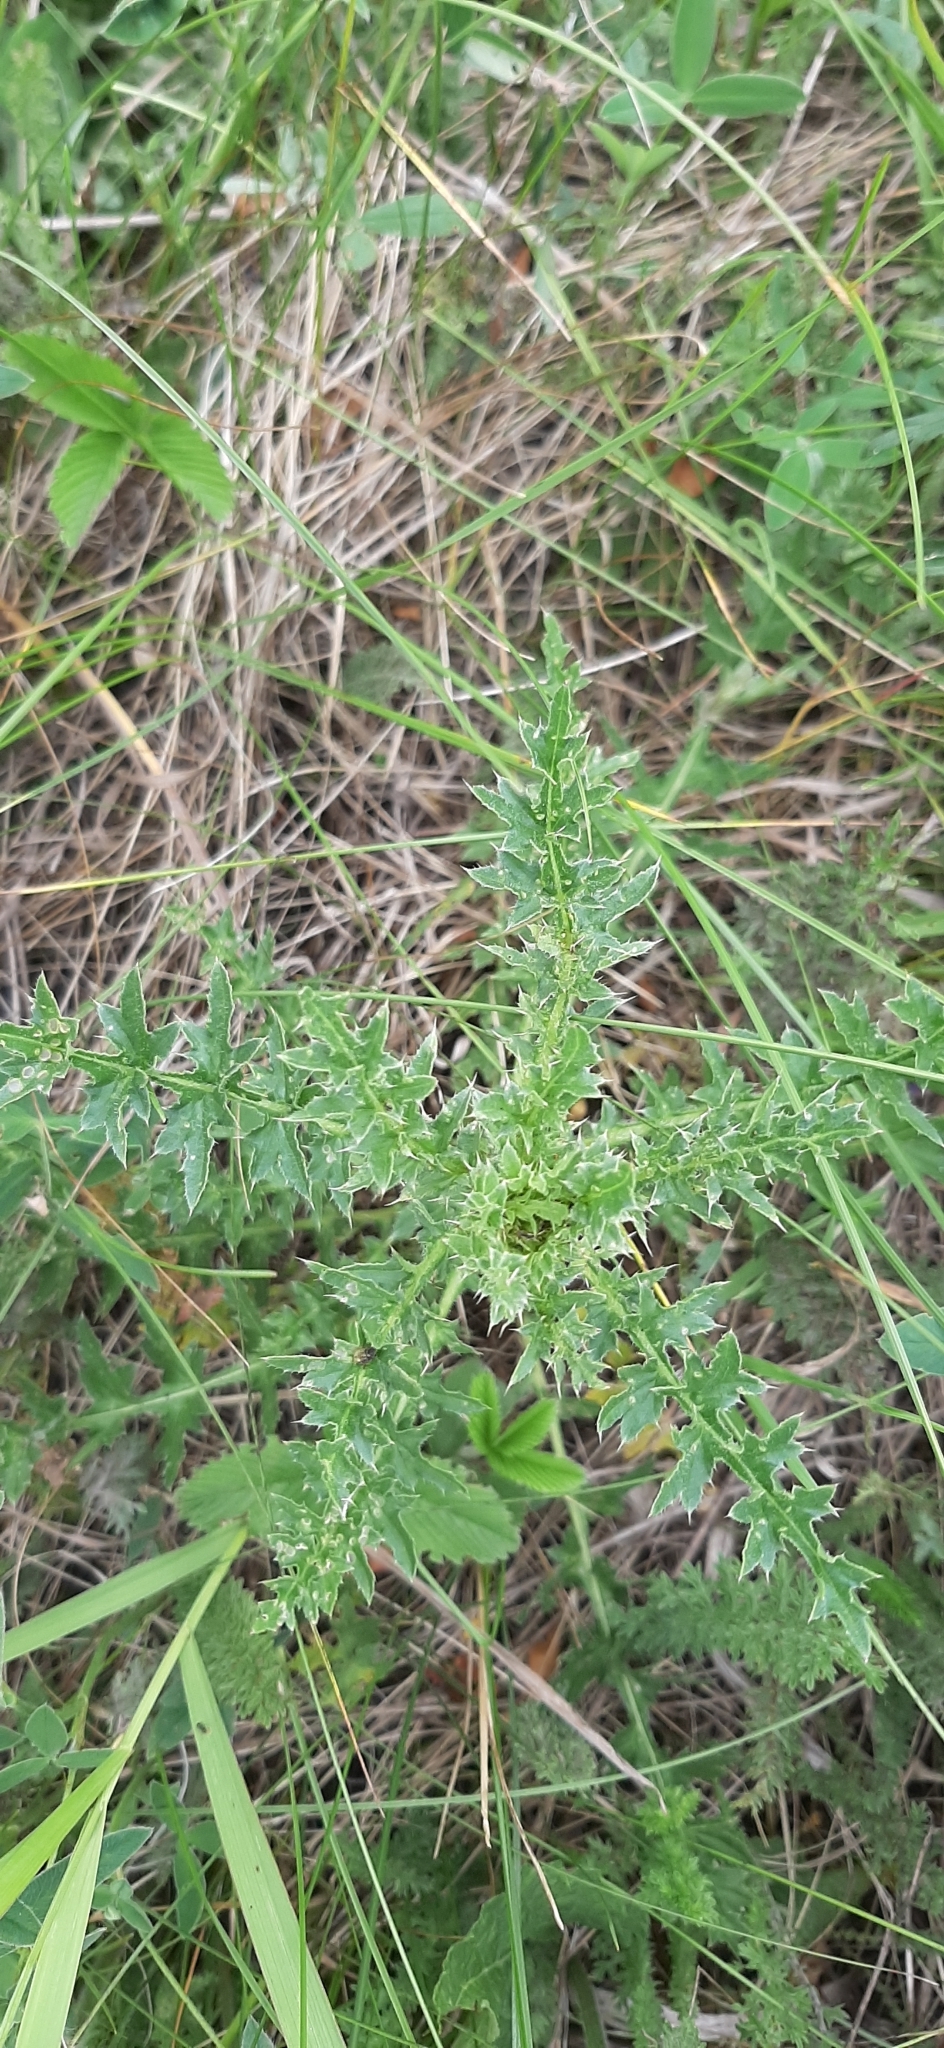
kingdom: Plantae
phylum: Tracheophyta
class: Magnoliopsida
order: Asterales
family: Asteraceae
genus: Carduus
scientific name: Carduus acanthoides
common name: Plumeless thistle
